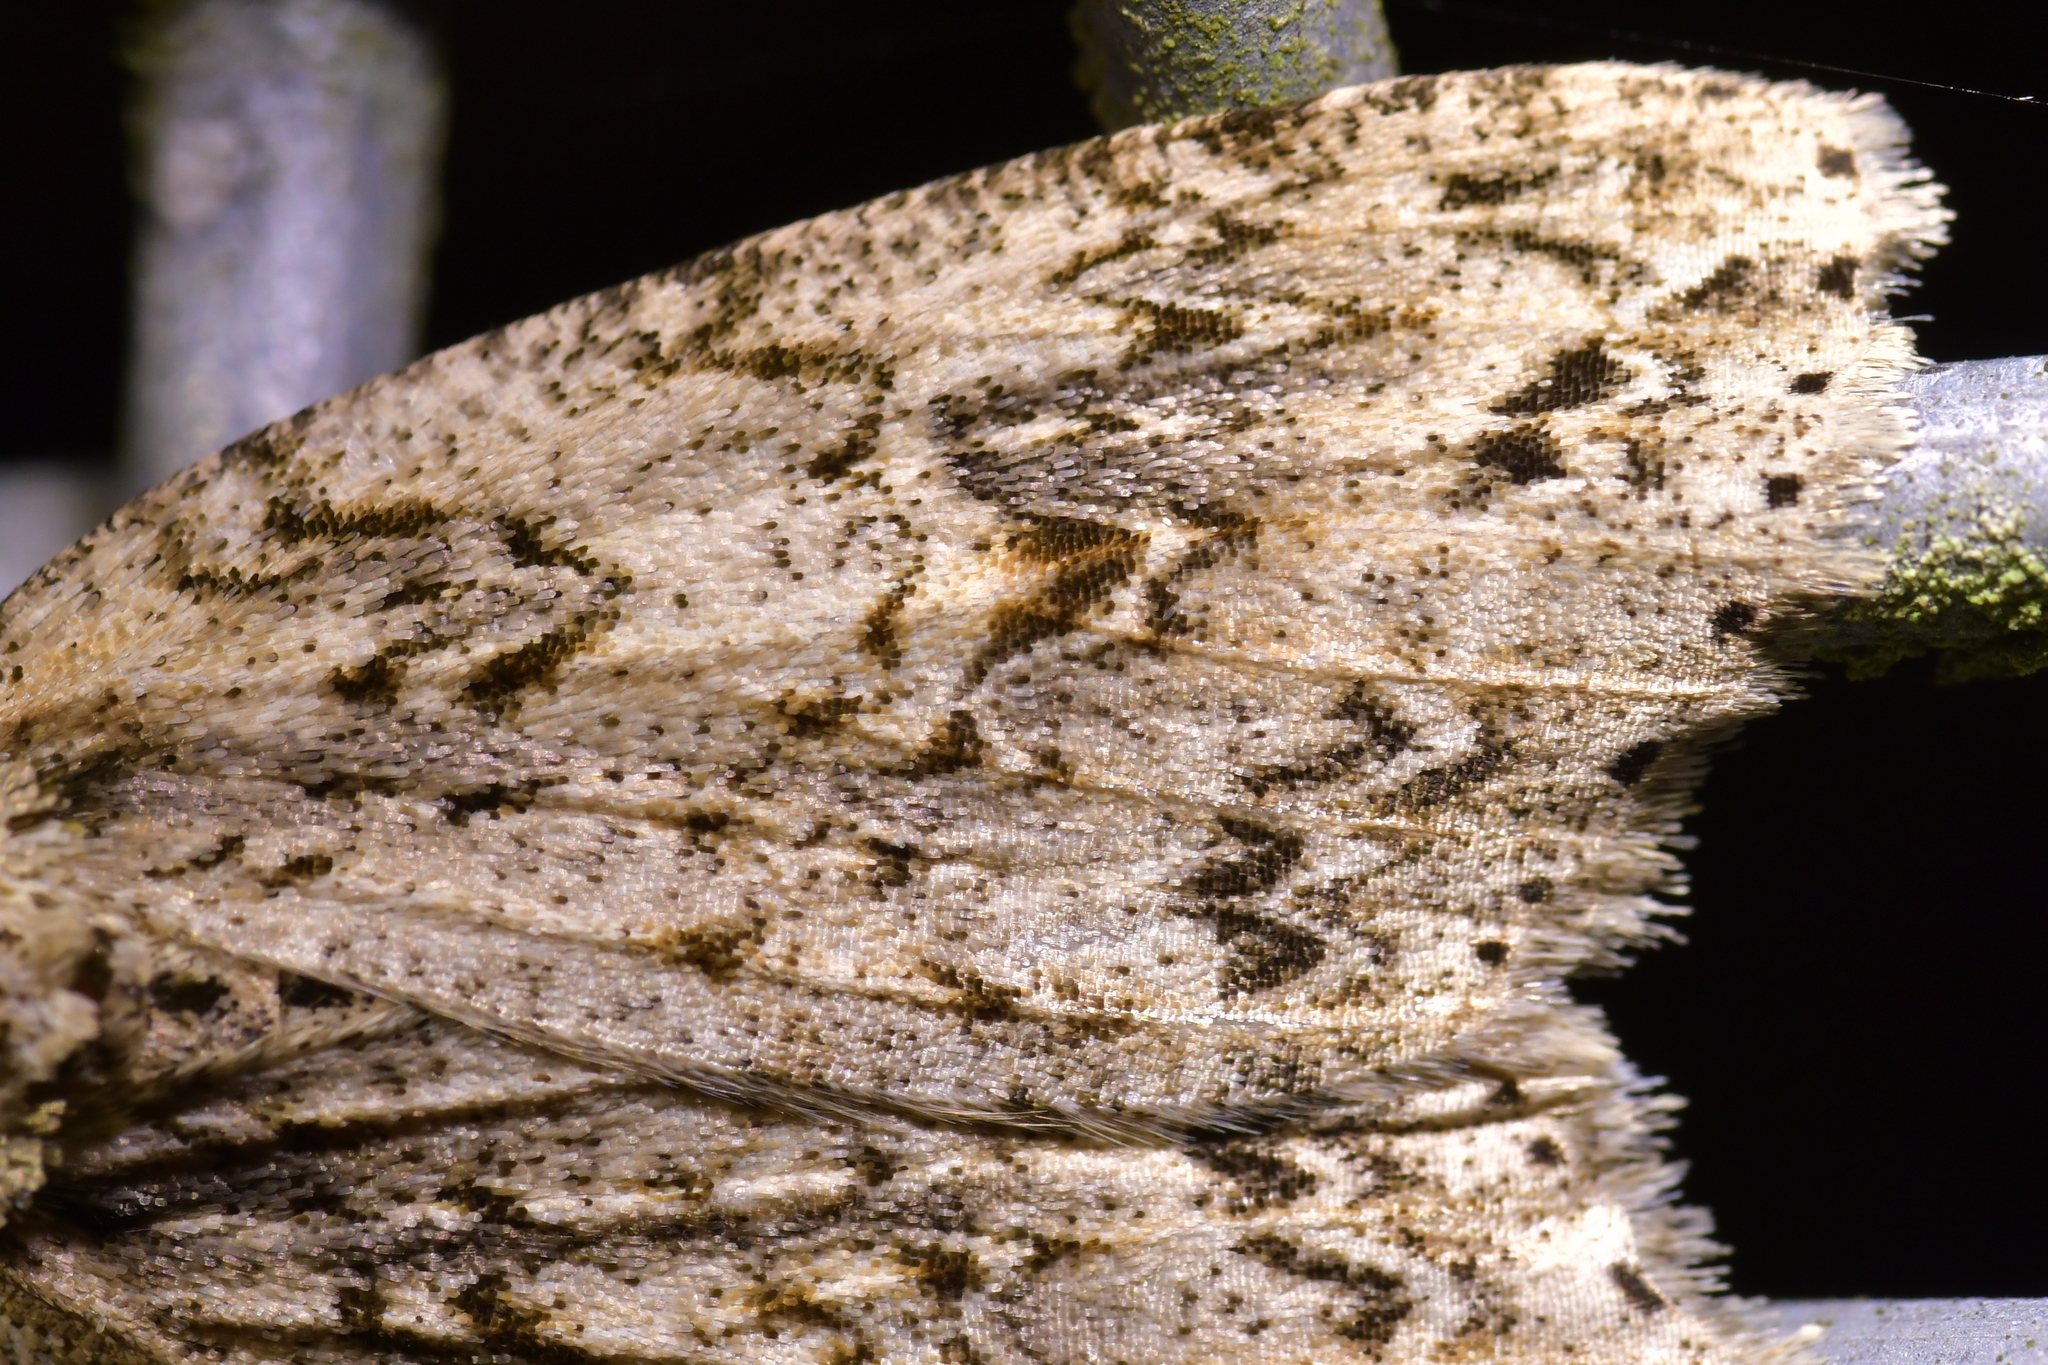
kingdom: Animalia
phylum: Arthropoda
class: Insecta
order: Lepidoptera
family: Geometridae
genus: Pseudocoremia
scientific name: Pseudocoremia rudisata
